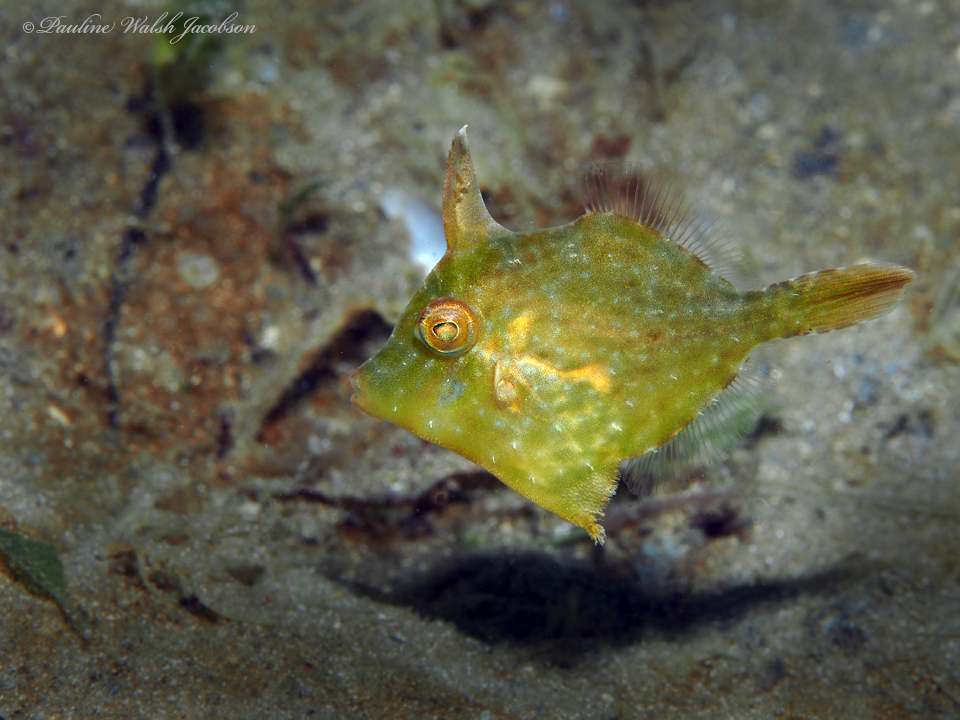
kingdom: Animalia
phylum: Chordata
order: Tetraodontiformes
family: Monacanthidae
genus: Monacanthus
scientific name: Monacanthus ciliatus
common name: Fringed filefish
